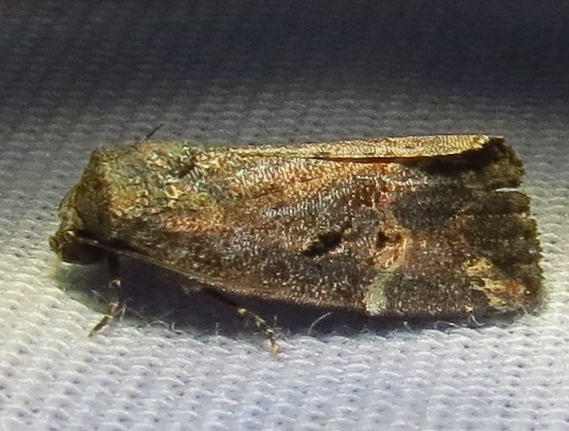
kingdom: Animalia
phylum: Arthropoda
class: Insecta
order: Lepidoptera
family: Noctuidae
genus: Elaphria
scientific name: Elaphria chalcedonia
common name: Chalcedony midget
